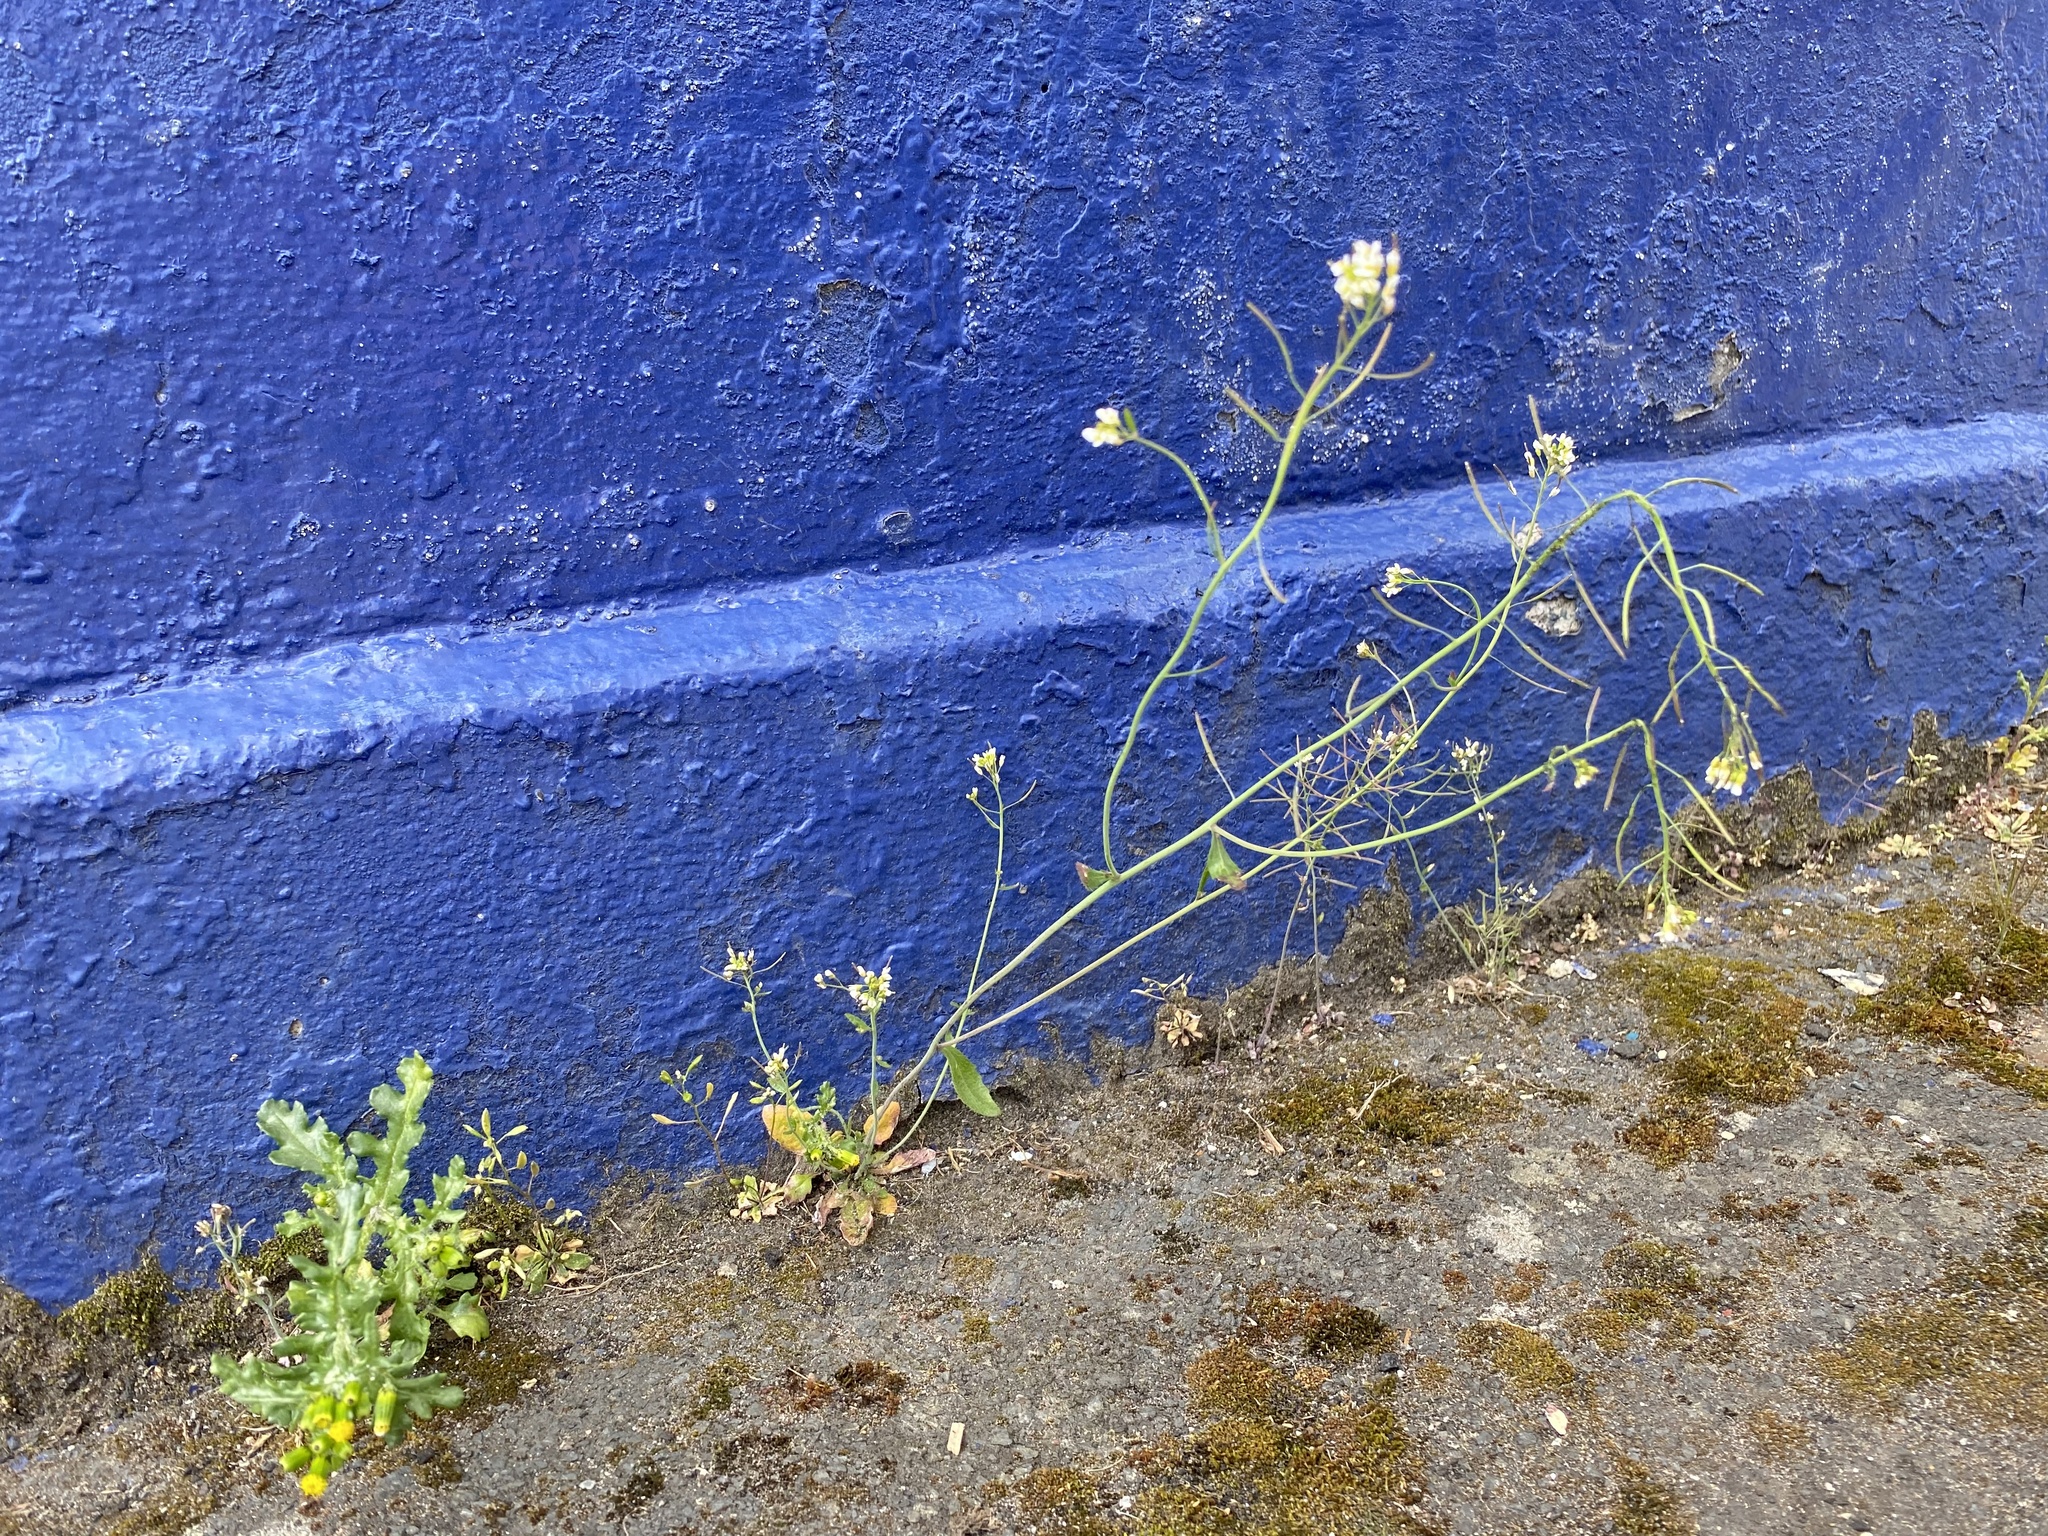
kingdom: Plantae
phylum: Tracheophyta
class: Magnoliopsida
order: Brassicales
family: Brassicaceae
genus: Arabidopsis
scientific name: Arabidopsis thaliana
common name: Thale cress
